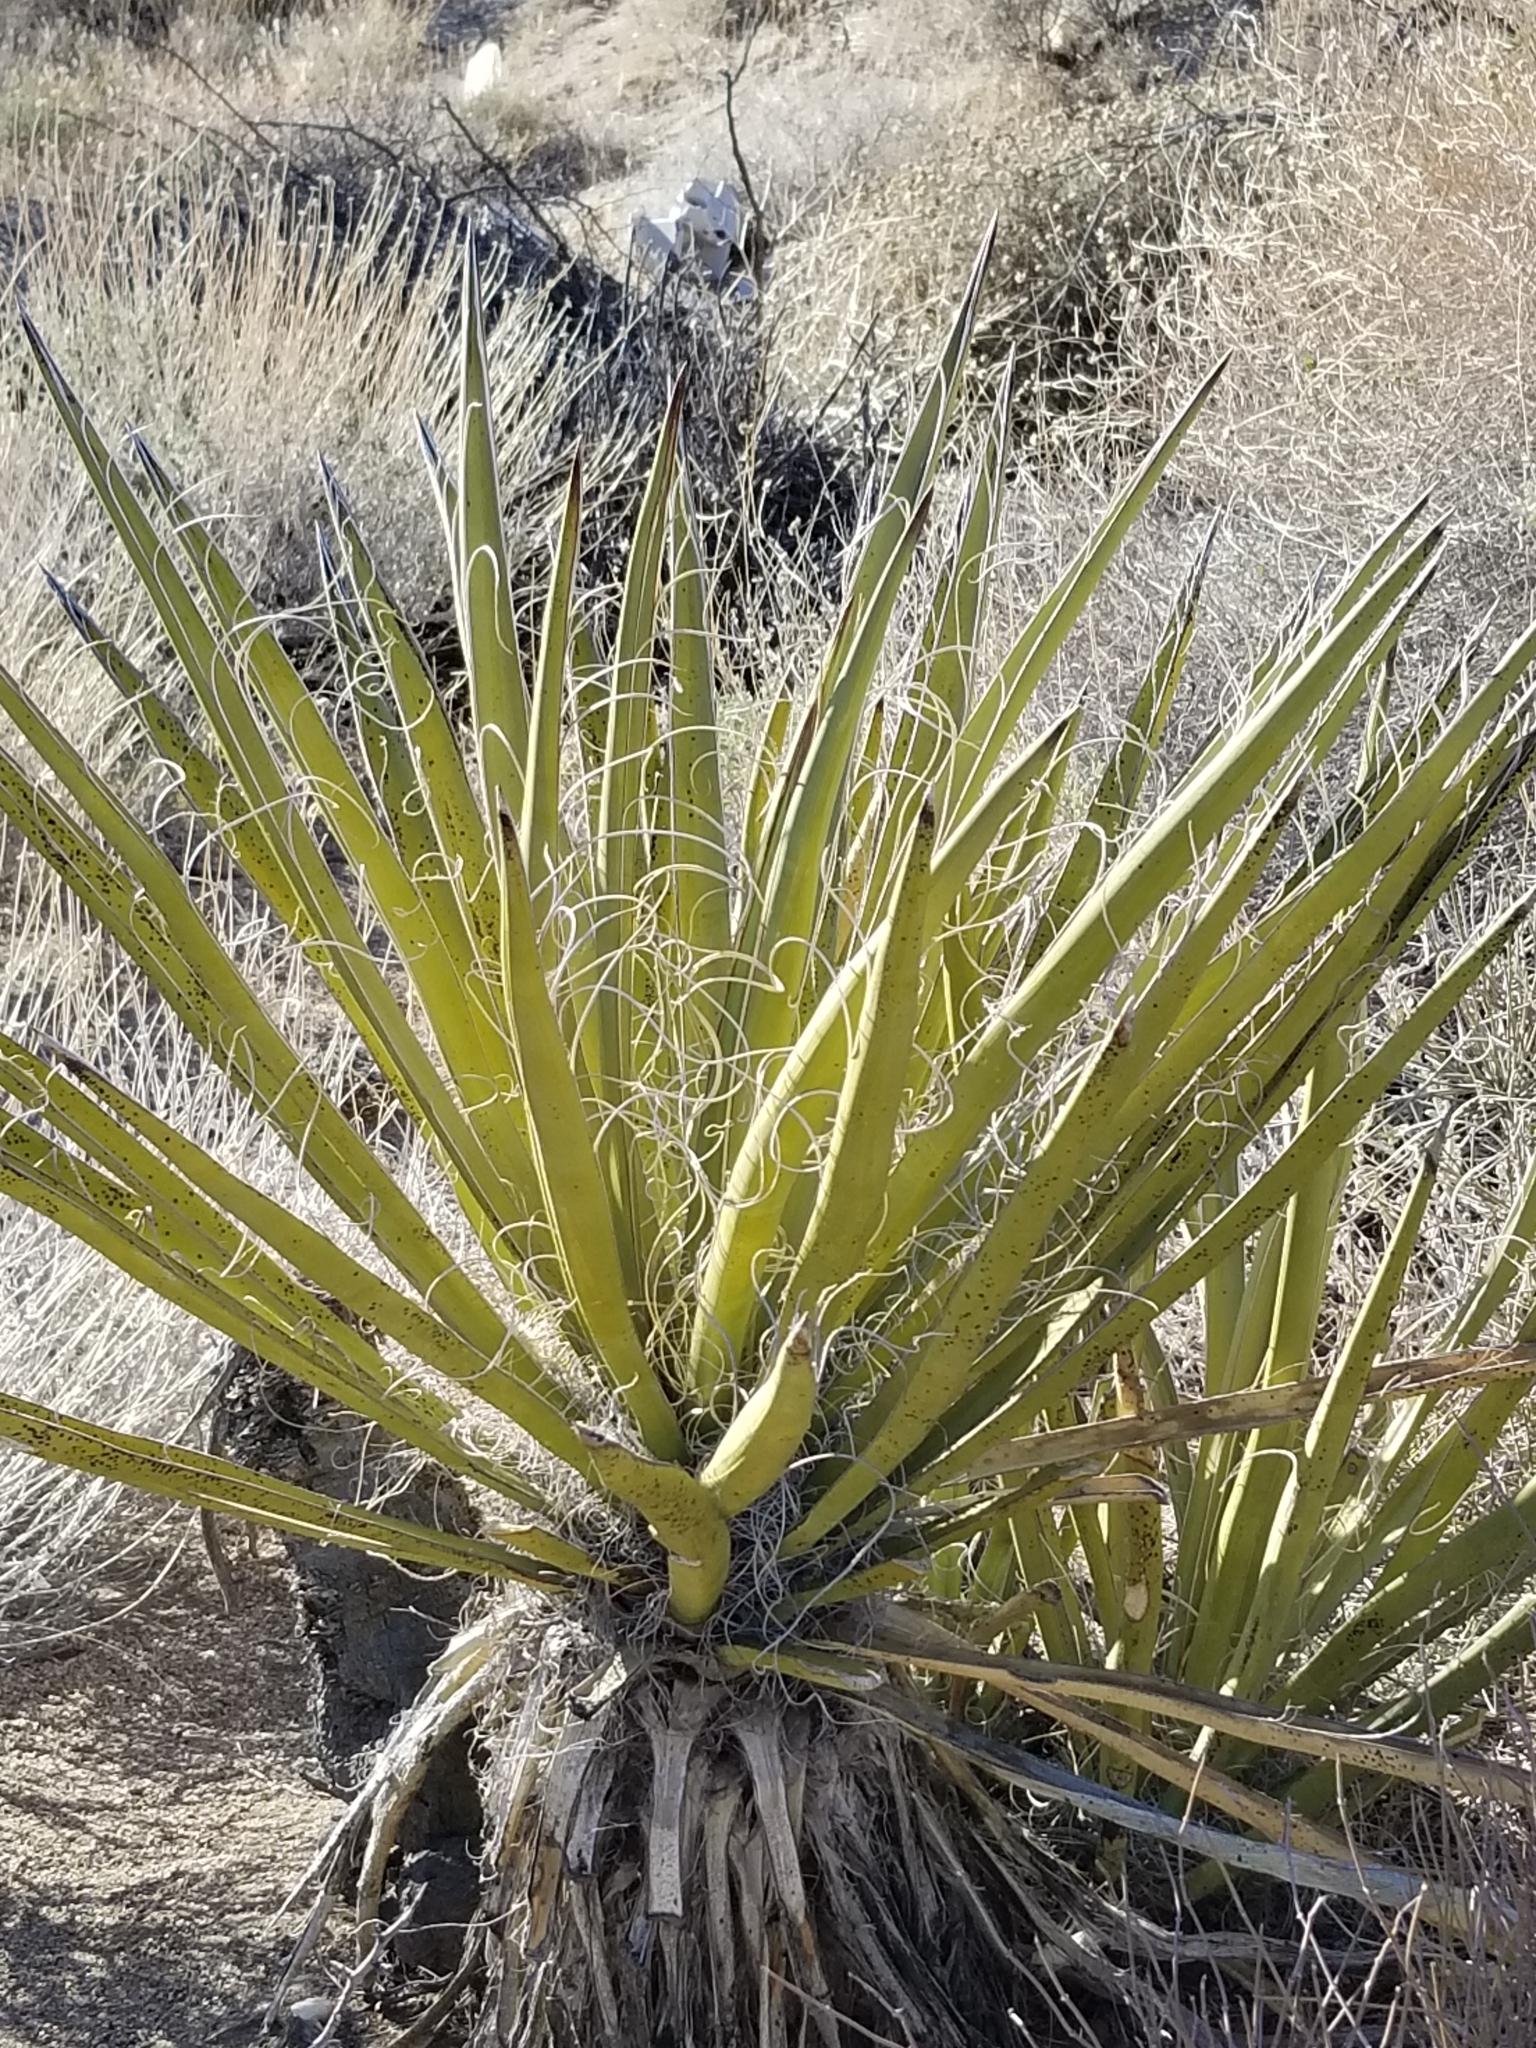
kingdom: Plantae
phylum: Tracheophyta
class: Liliopsida
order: Asparagales
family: Asparagaceae
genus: Yucca
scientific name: Yucca schidigera
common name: Mojave yucca
